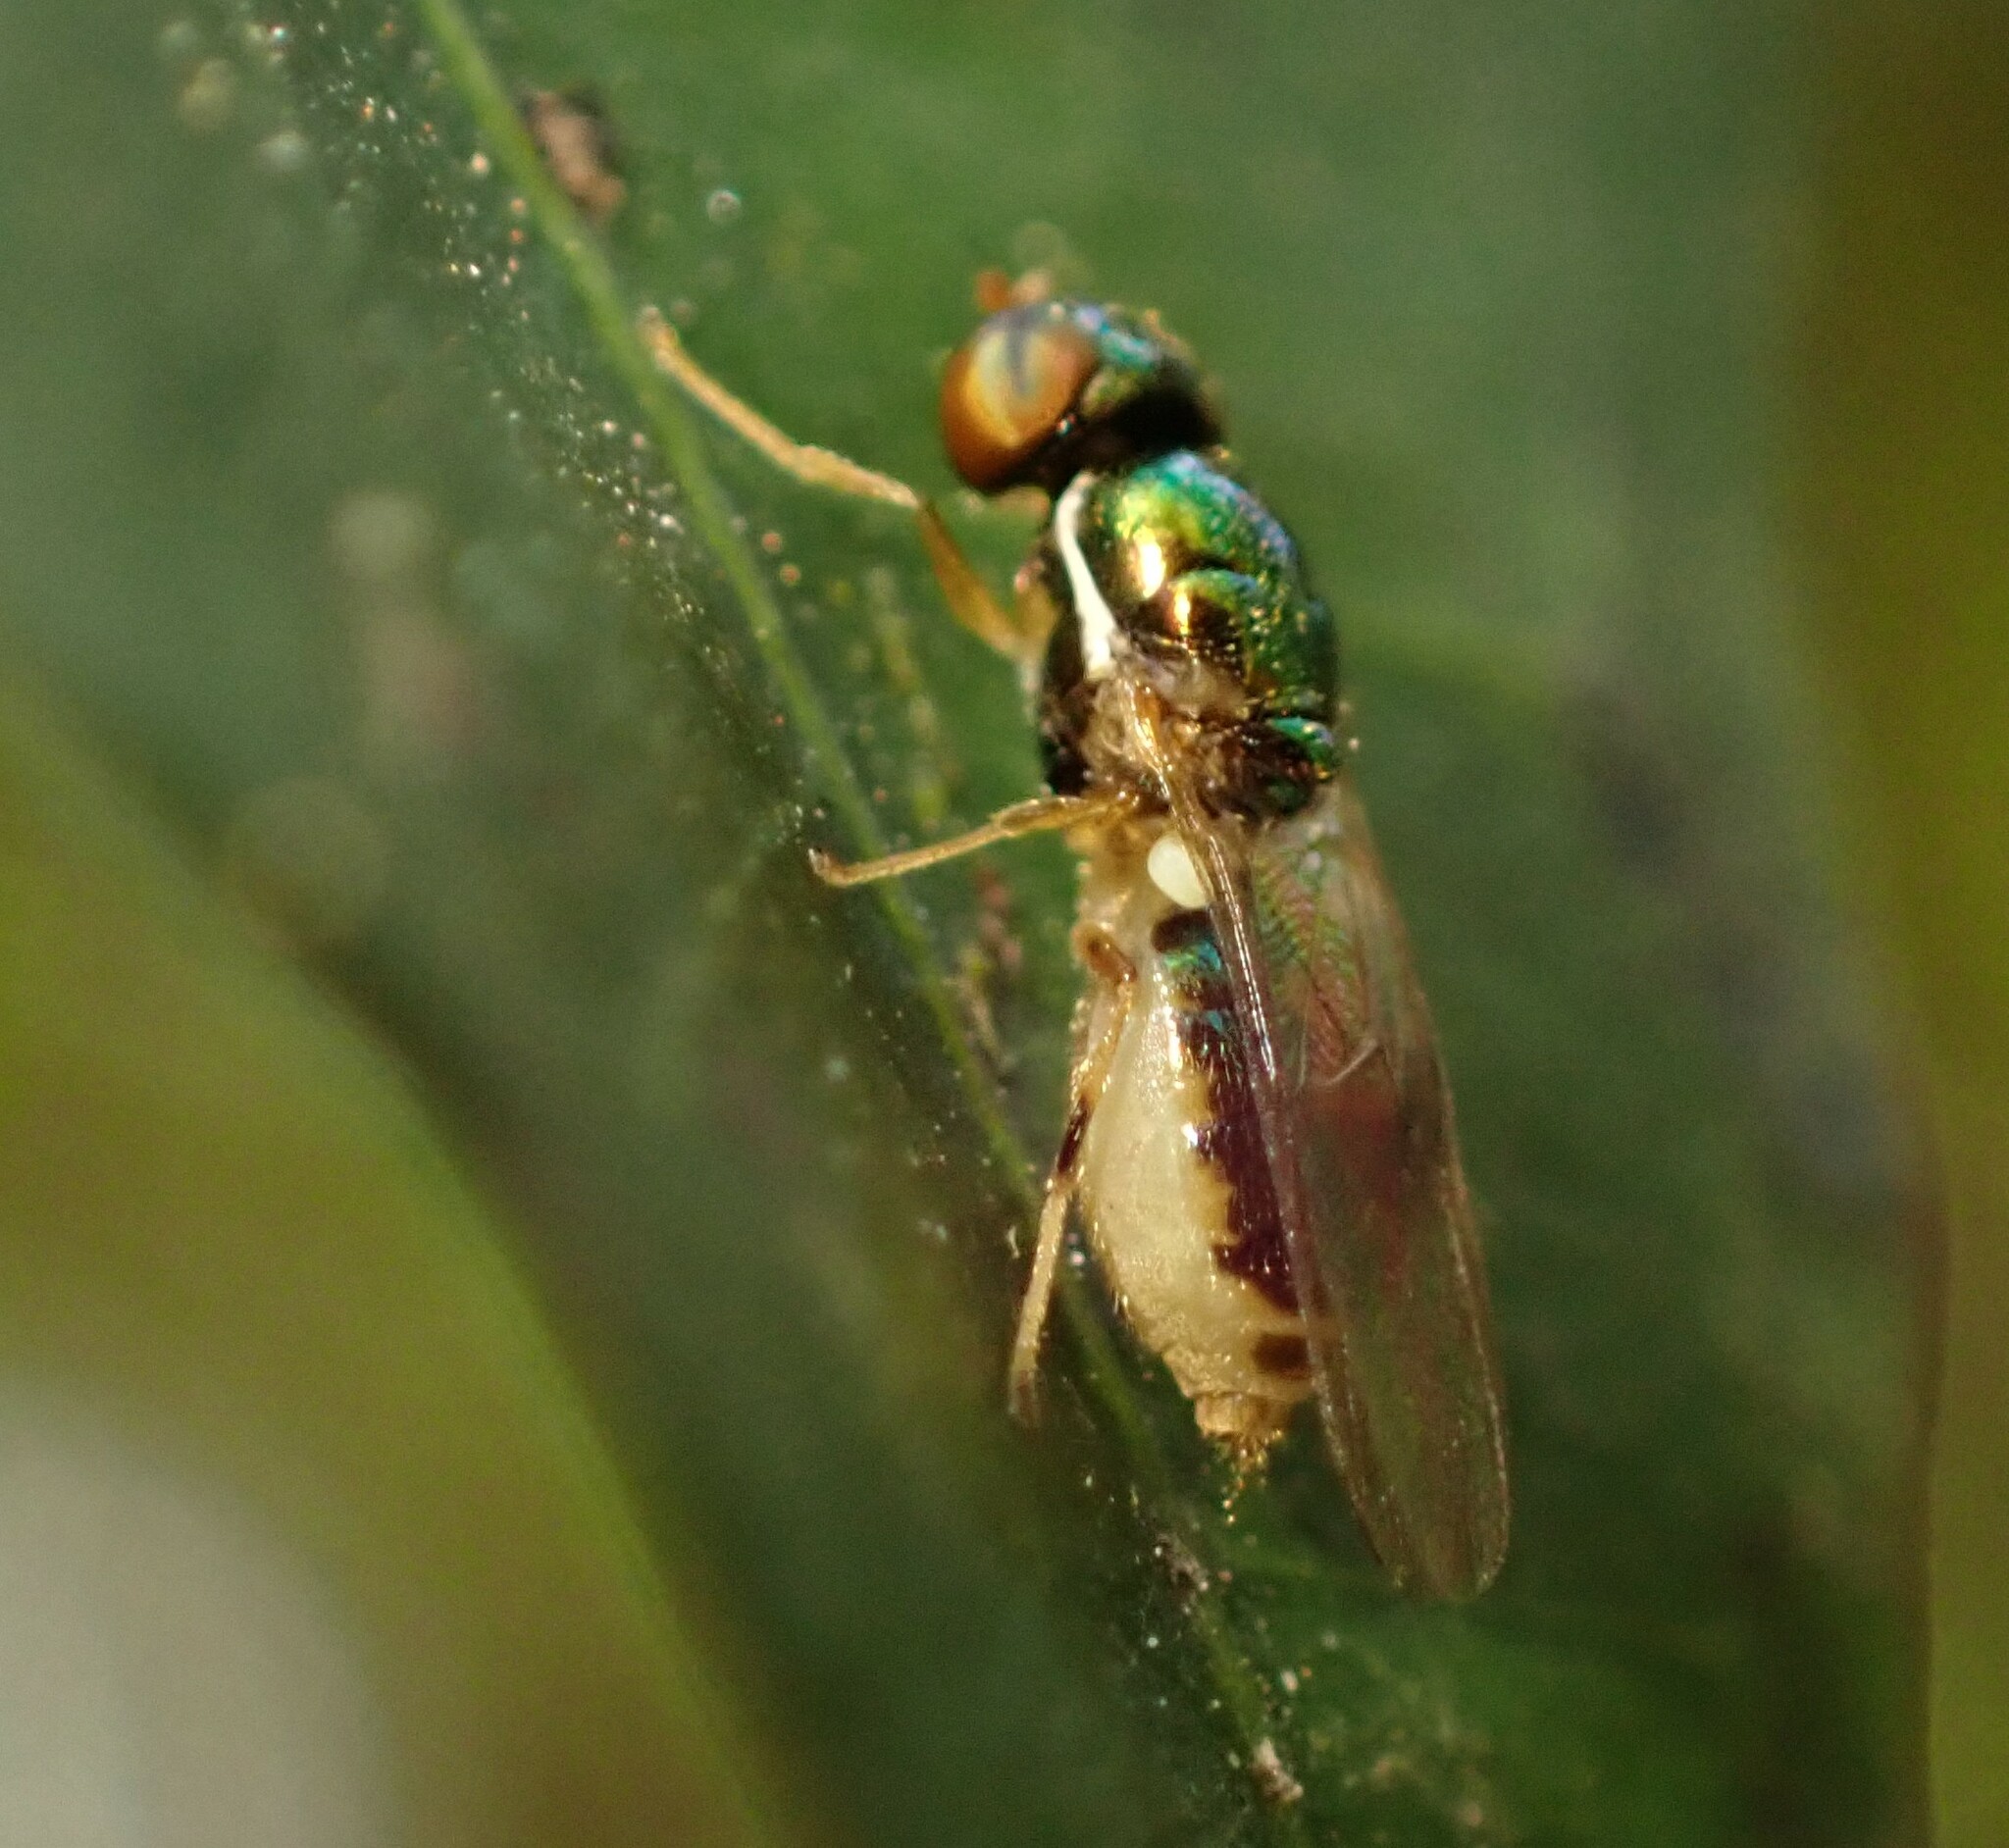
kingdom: Animalia
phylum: Arthropoda
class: Insecta
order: Diptera
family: Stratiomyidae
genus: Microchrysa
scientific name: Microchrysa bicolor
